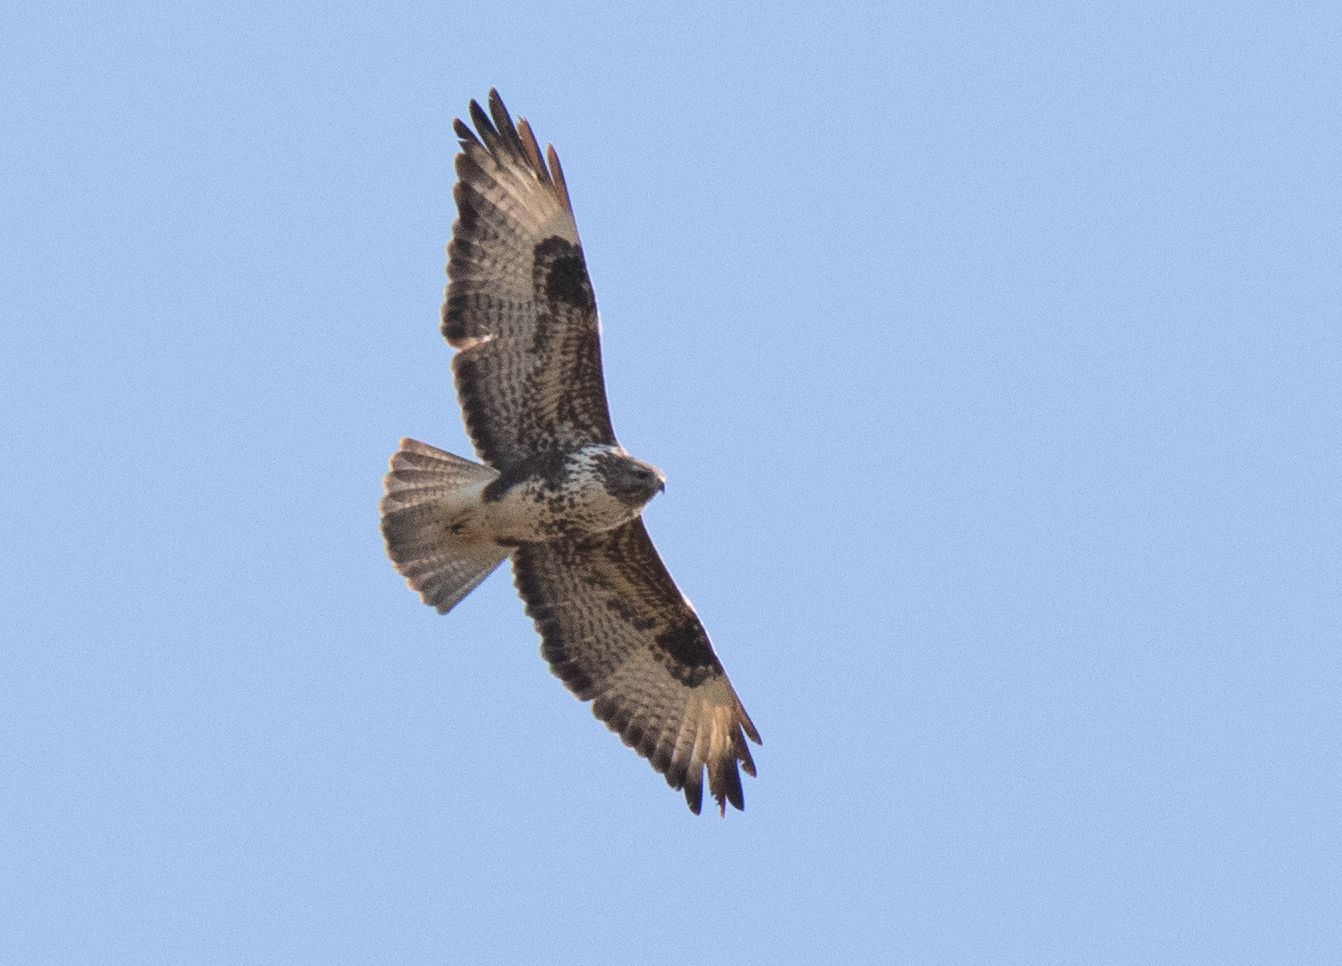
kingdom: Animalia
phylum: Chordata
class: Aves
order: Accipitriformes
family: Accipitridae
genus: Buteo
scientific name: Buteo buteo
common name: Common buzzard
